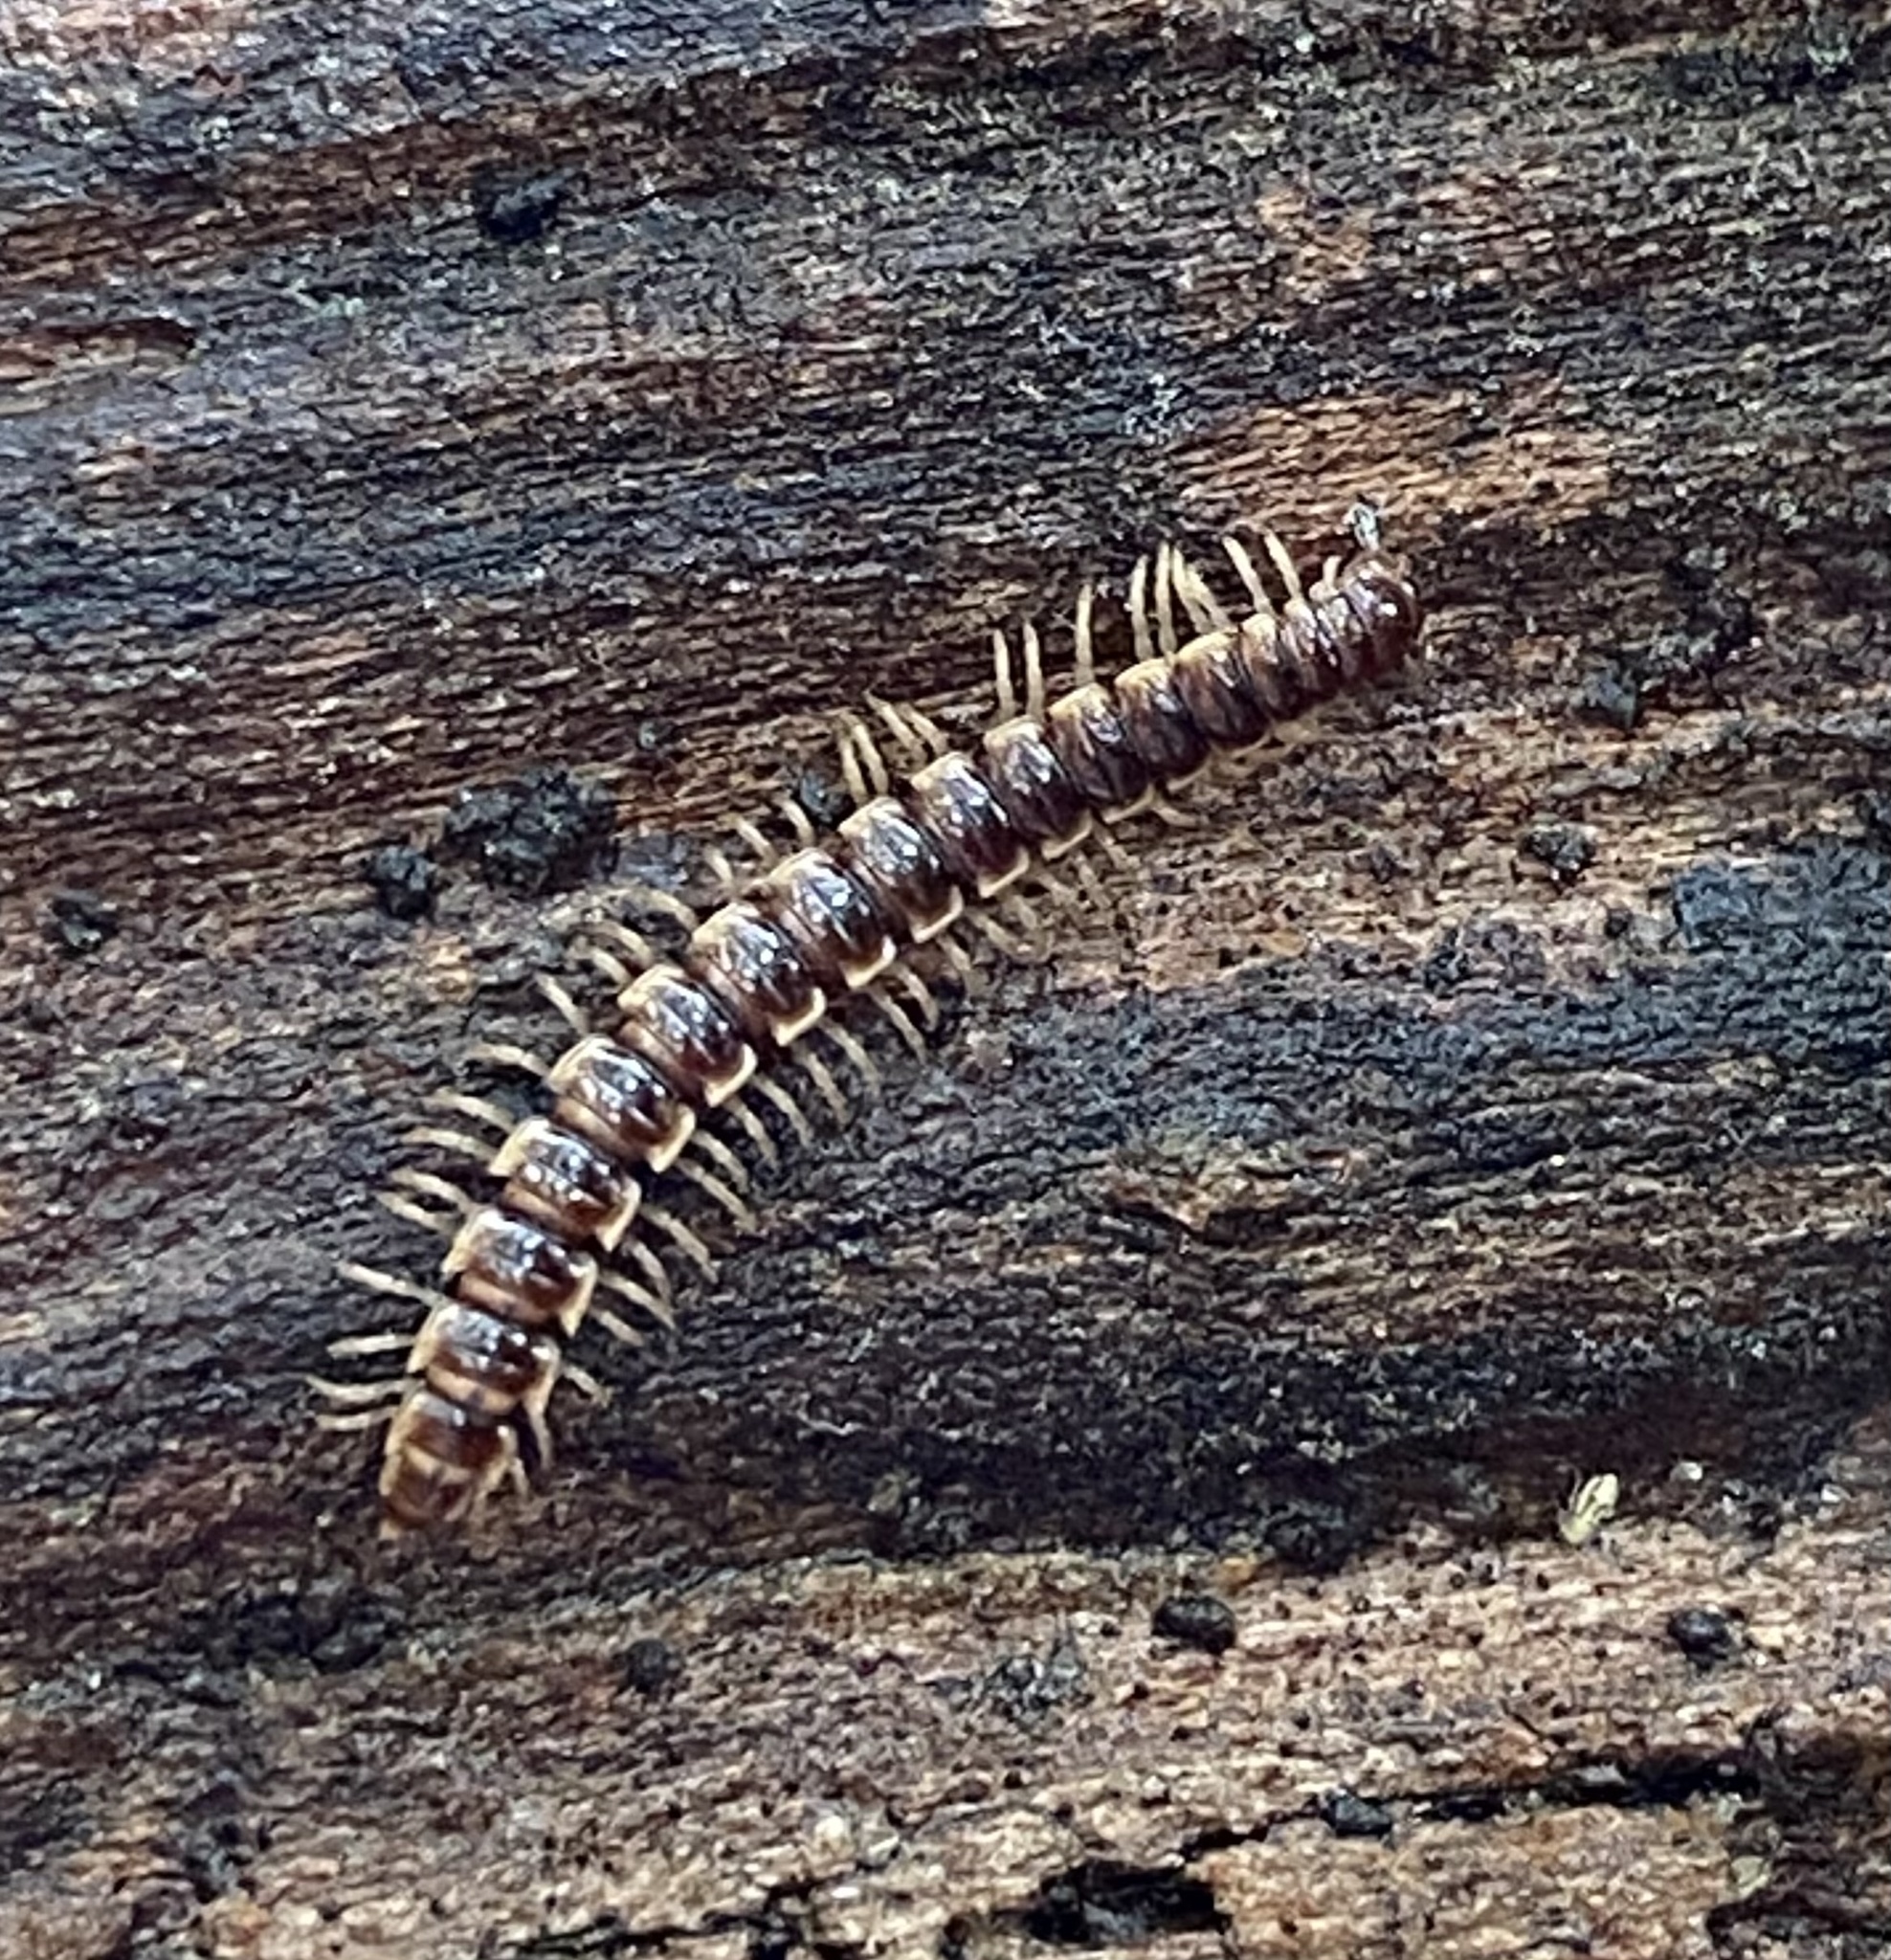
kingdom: Animalia
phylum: Arthropoda
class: Diplopoda
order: Polydesmida
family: Paradoxosomatidae
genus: Oxidus
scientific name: Oxidus gracilis
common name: Greenhouse millipede
